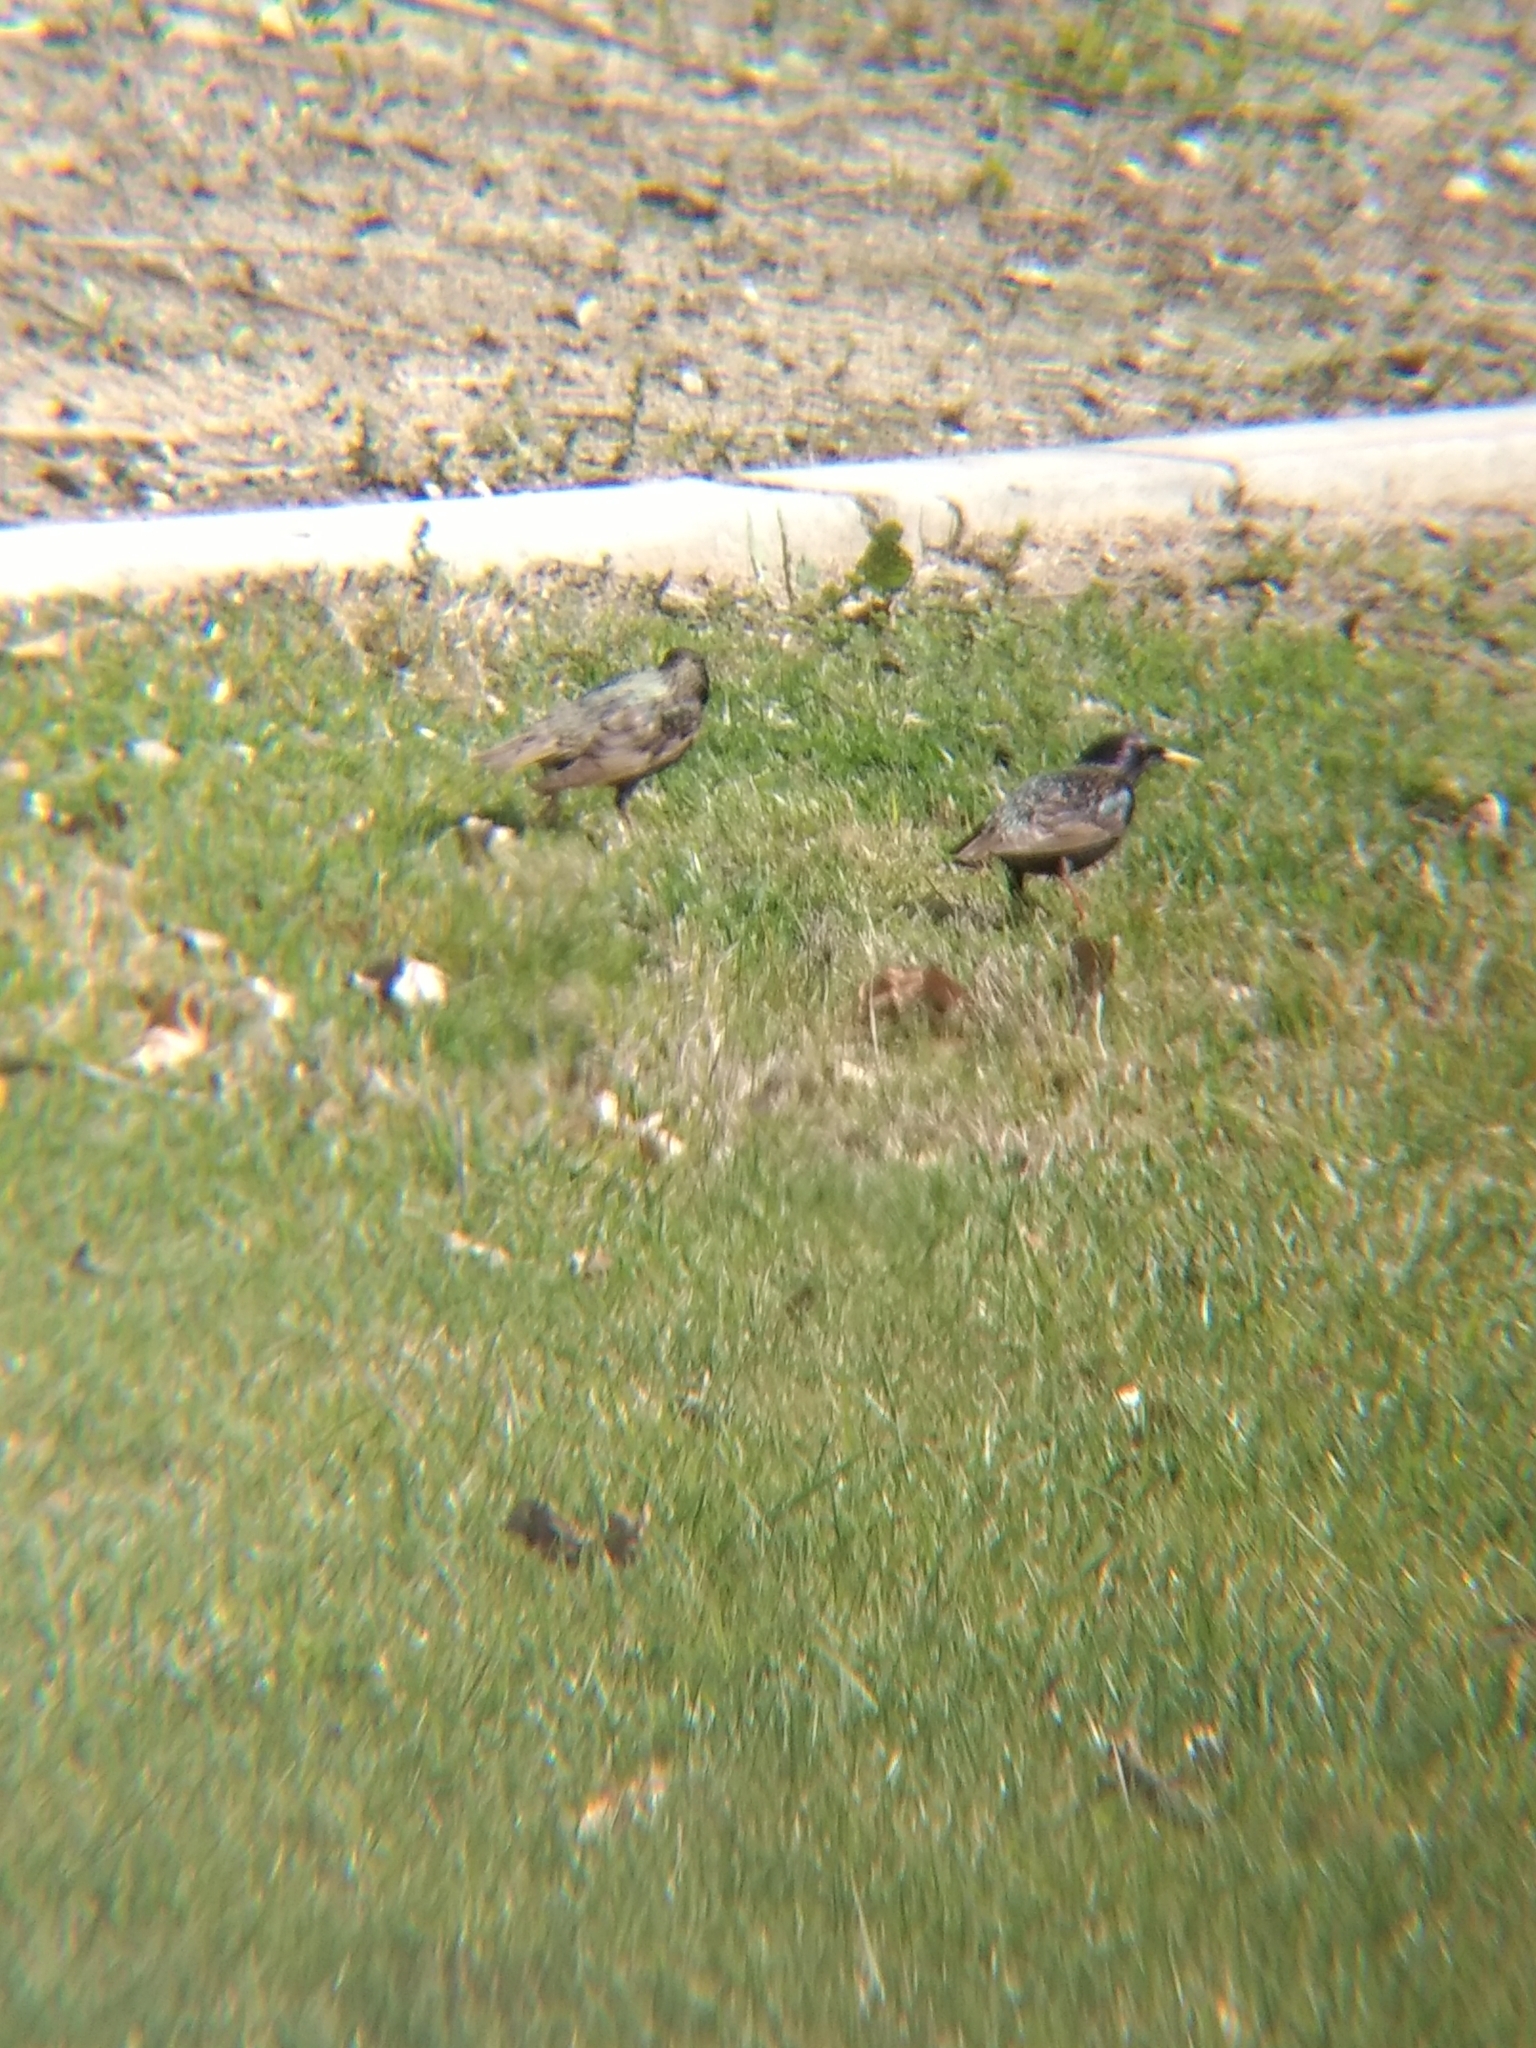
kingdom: Animalia
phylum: Chordata
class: Aves
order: Passeriformes
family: Sturnidae
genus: Sturnus
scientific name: Sturnus vulgaris
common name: Common starling
